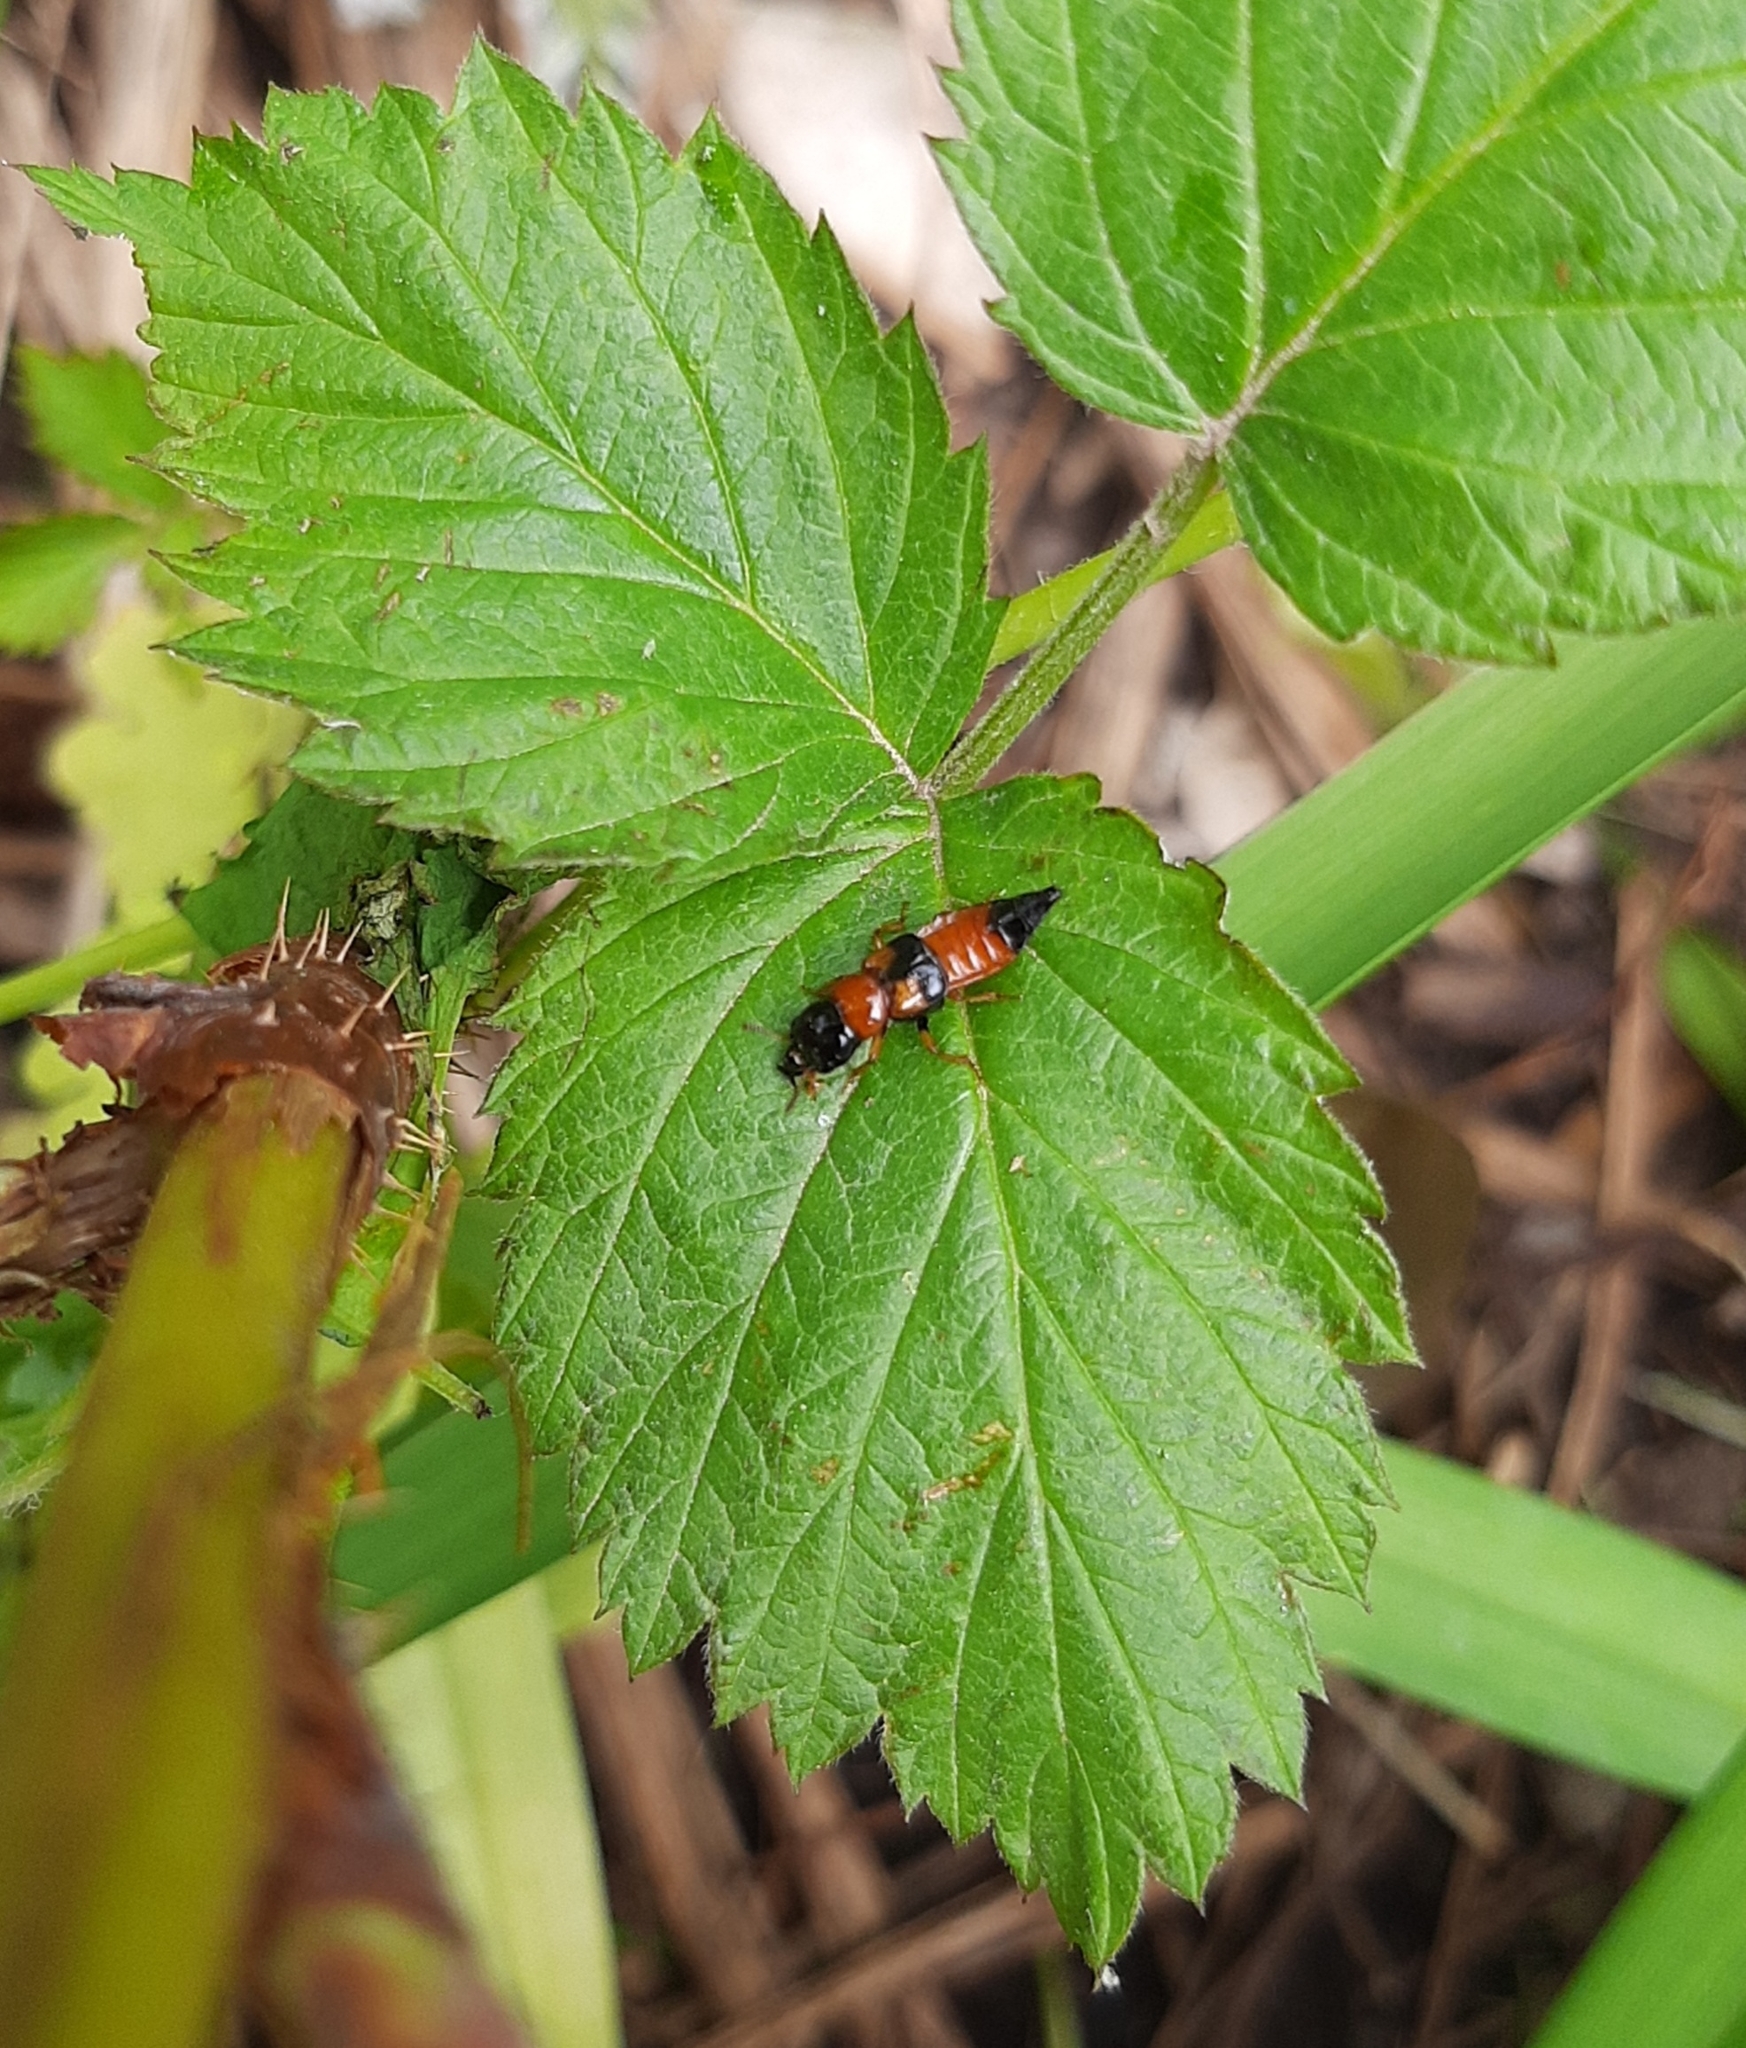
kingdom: Animalia
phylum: Arthropoda
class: Insecta
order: Coleoptera
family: Staphylinidae
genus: Oxyporus
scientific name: Oxyporus rufus
